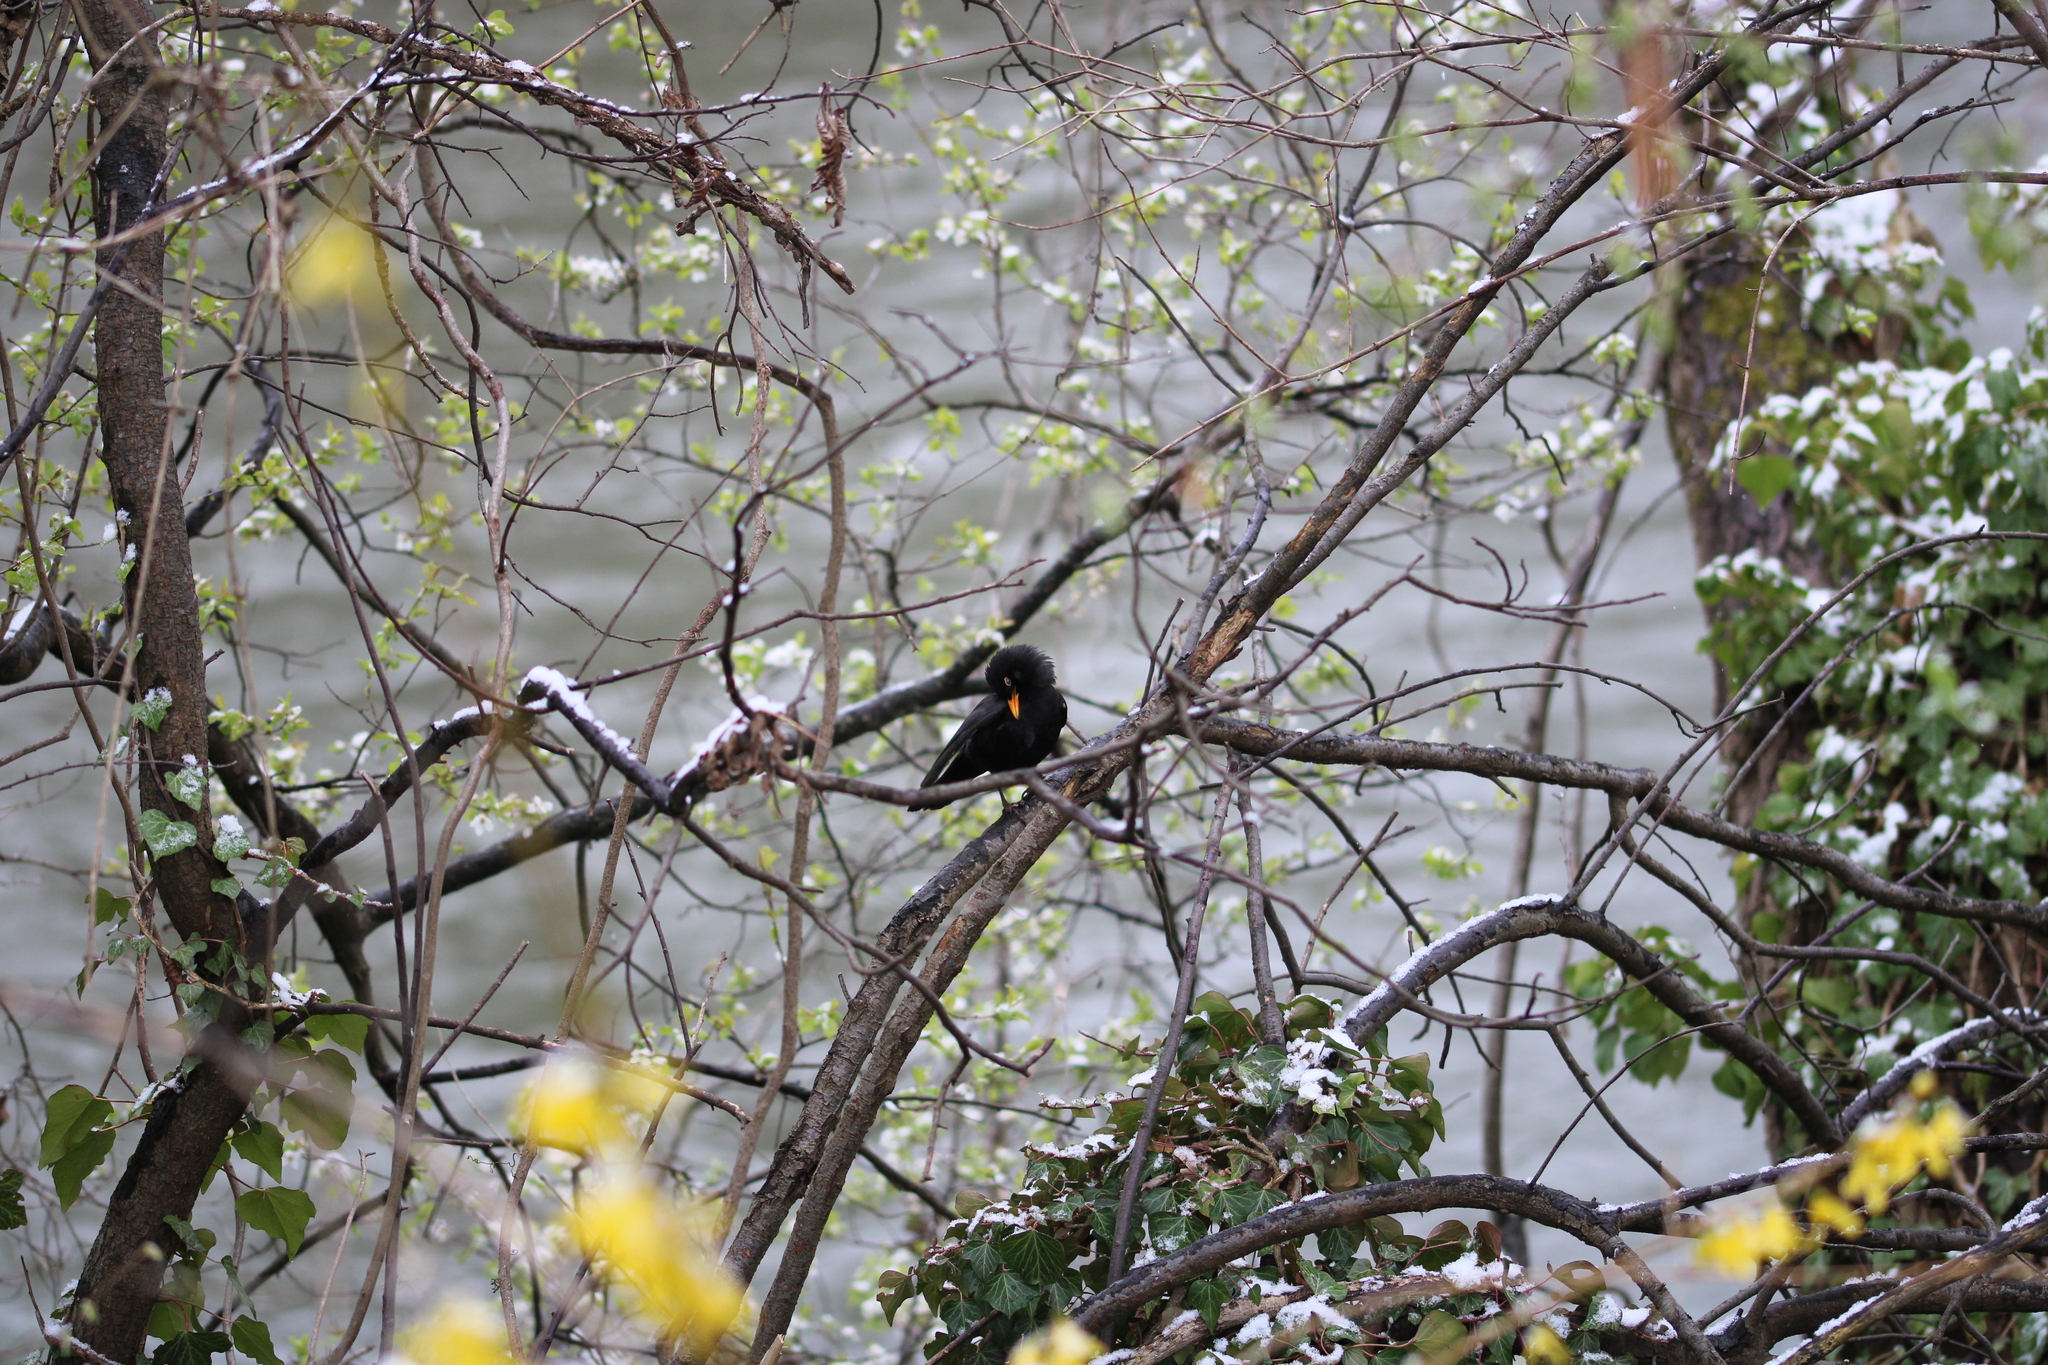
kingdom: Animalia
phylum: Chordata
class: Aves
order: Passeriformes
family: Turdidae
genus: Turdus
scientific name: Turdus merula
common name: Common blackbird
